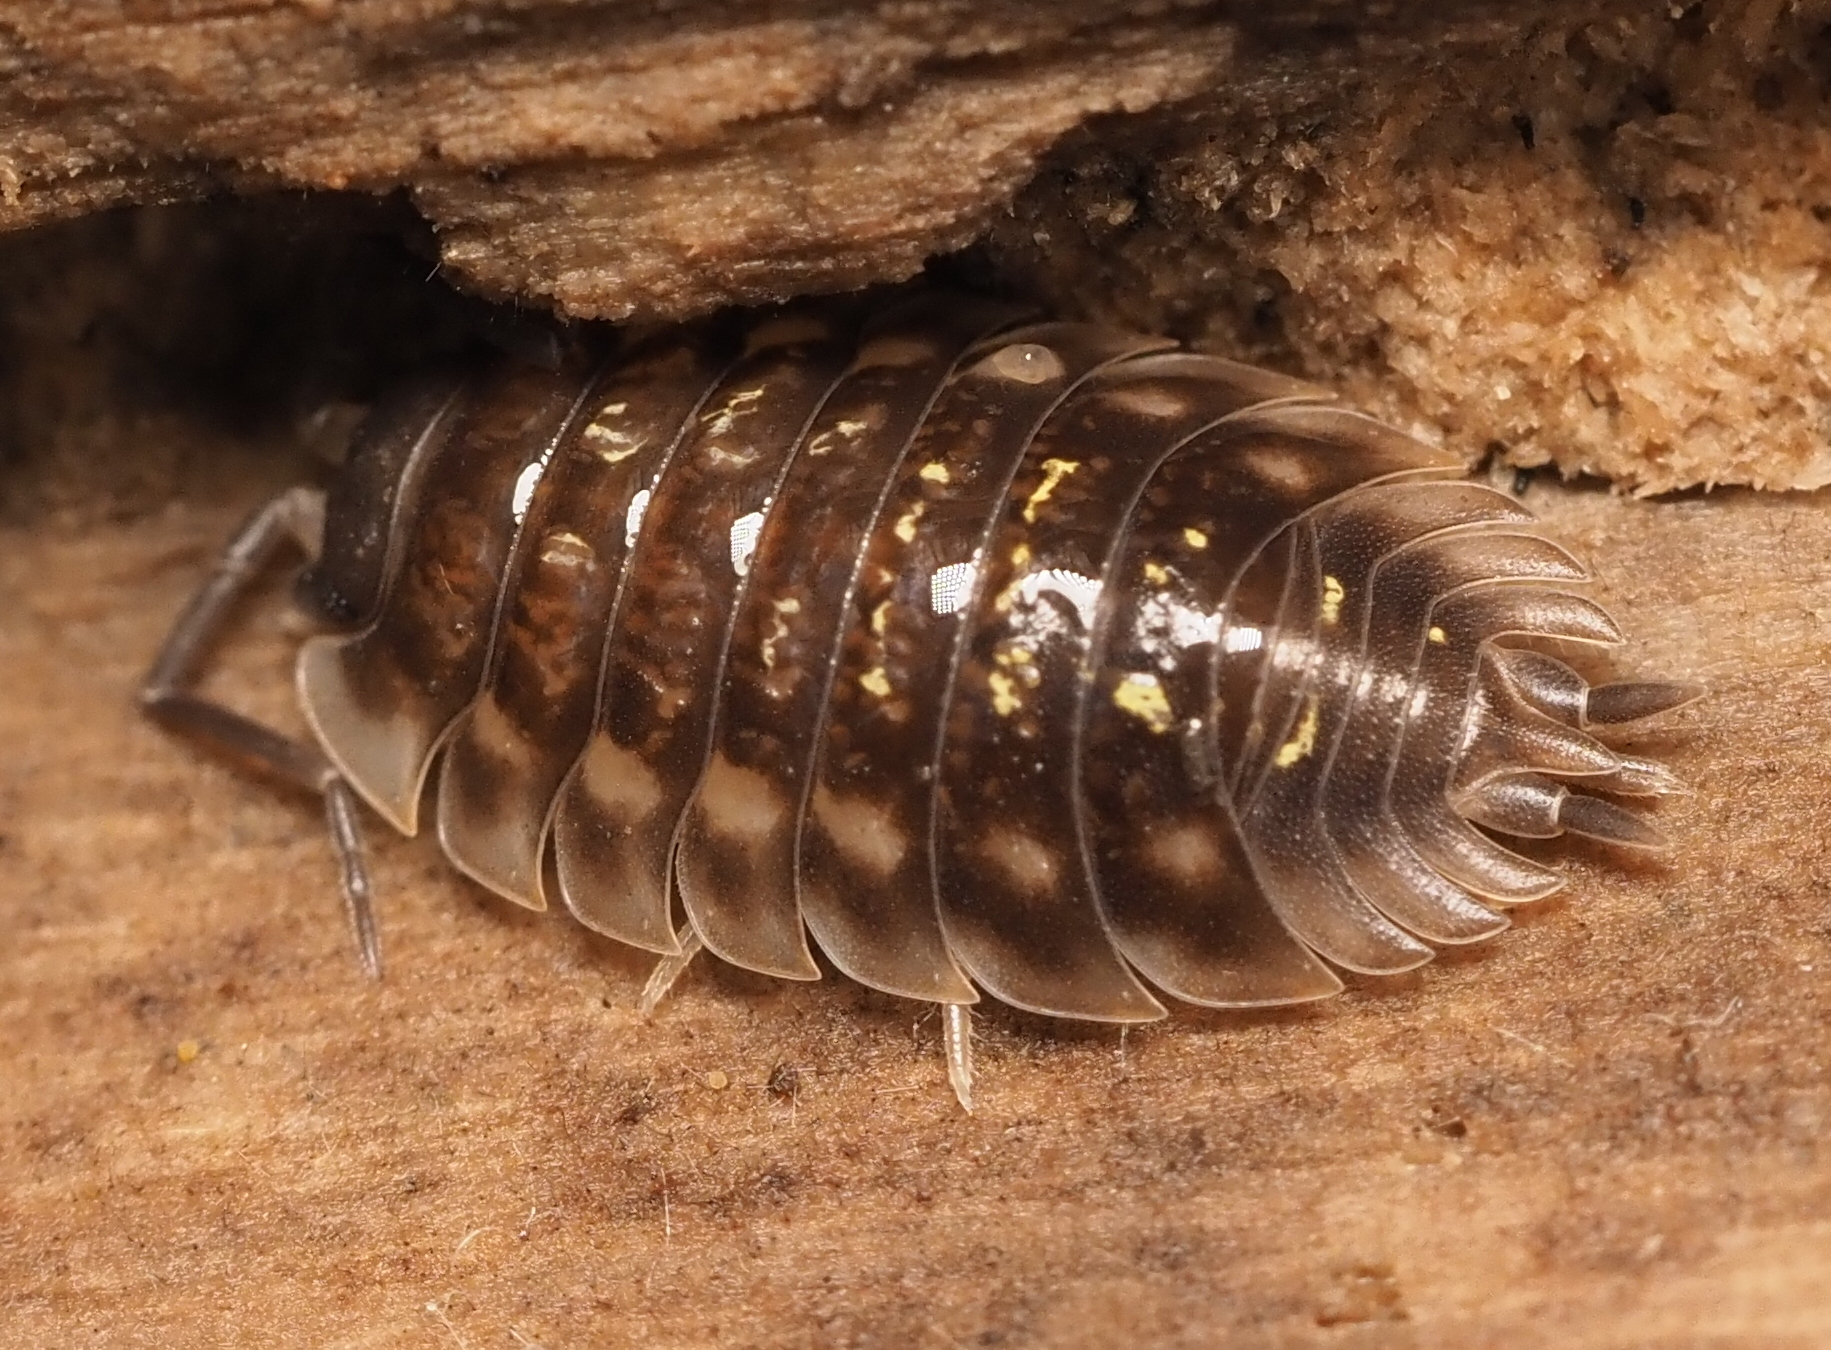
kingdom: Animalia
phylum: Arthropoda
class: Malacostraca
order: Isopoda
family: Oniscidae
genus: Oniscus
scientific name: Oniscus asellus
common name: Common shiny woodlouse
